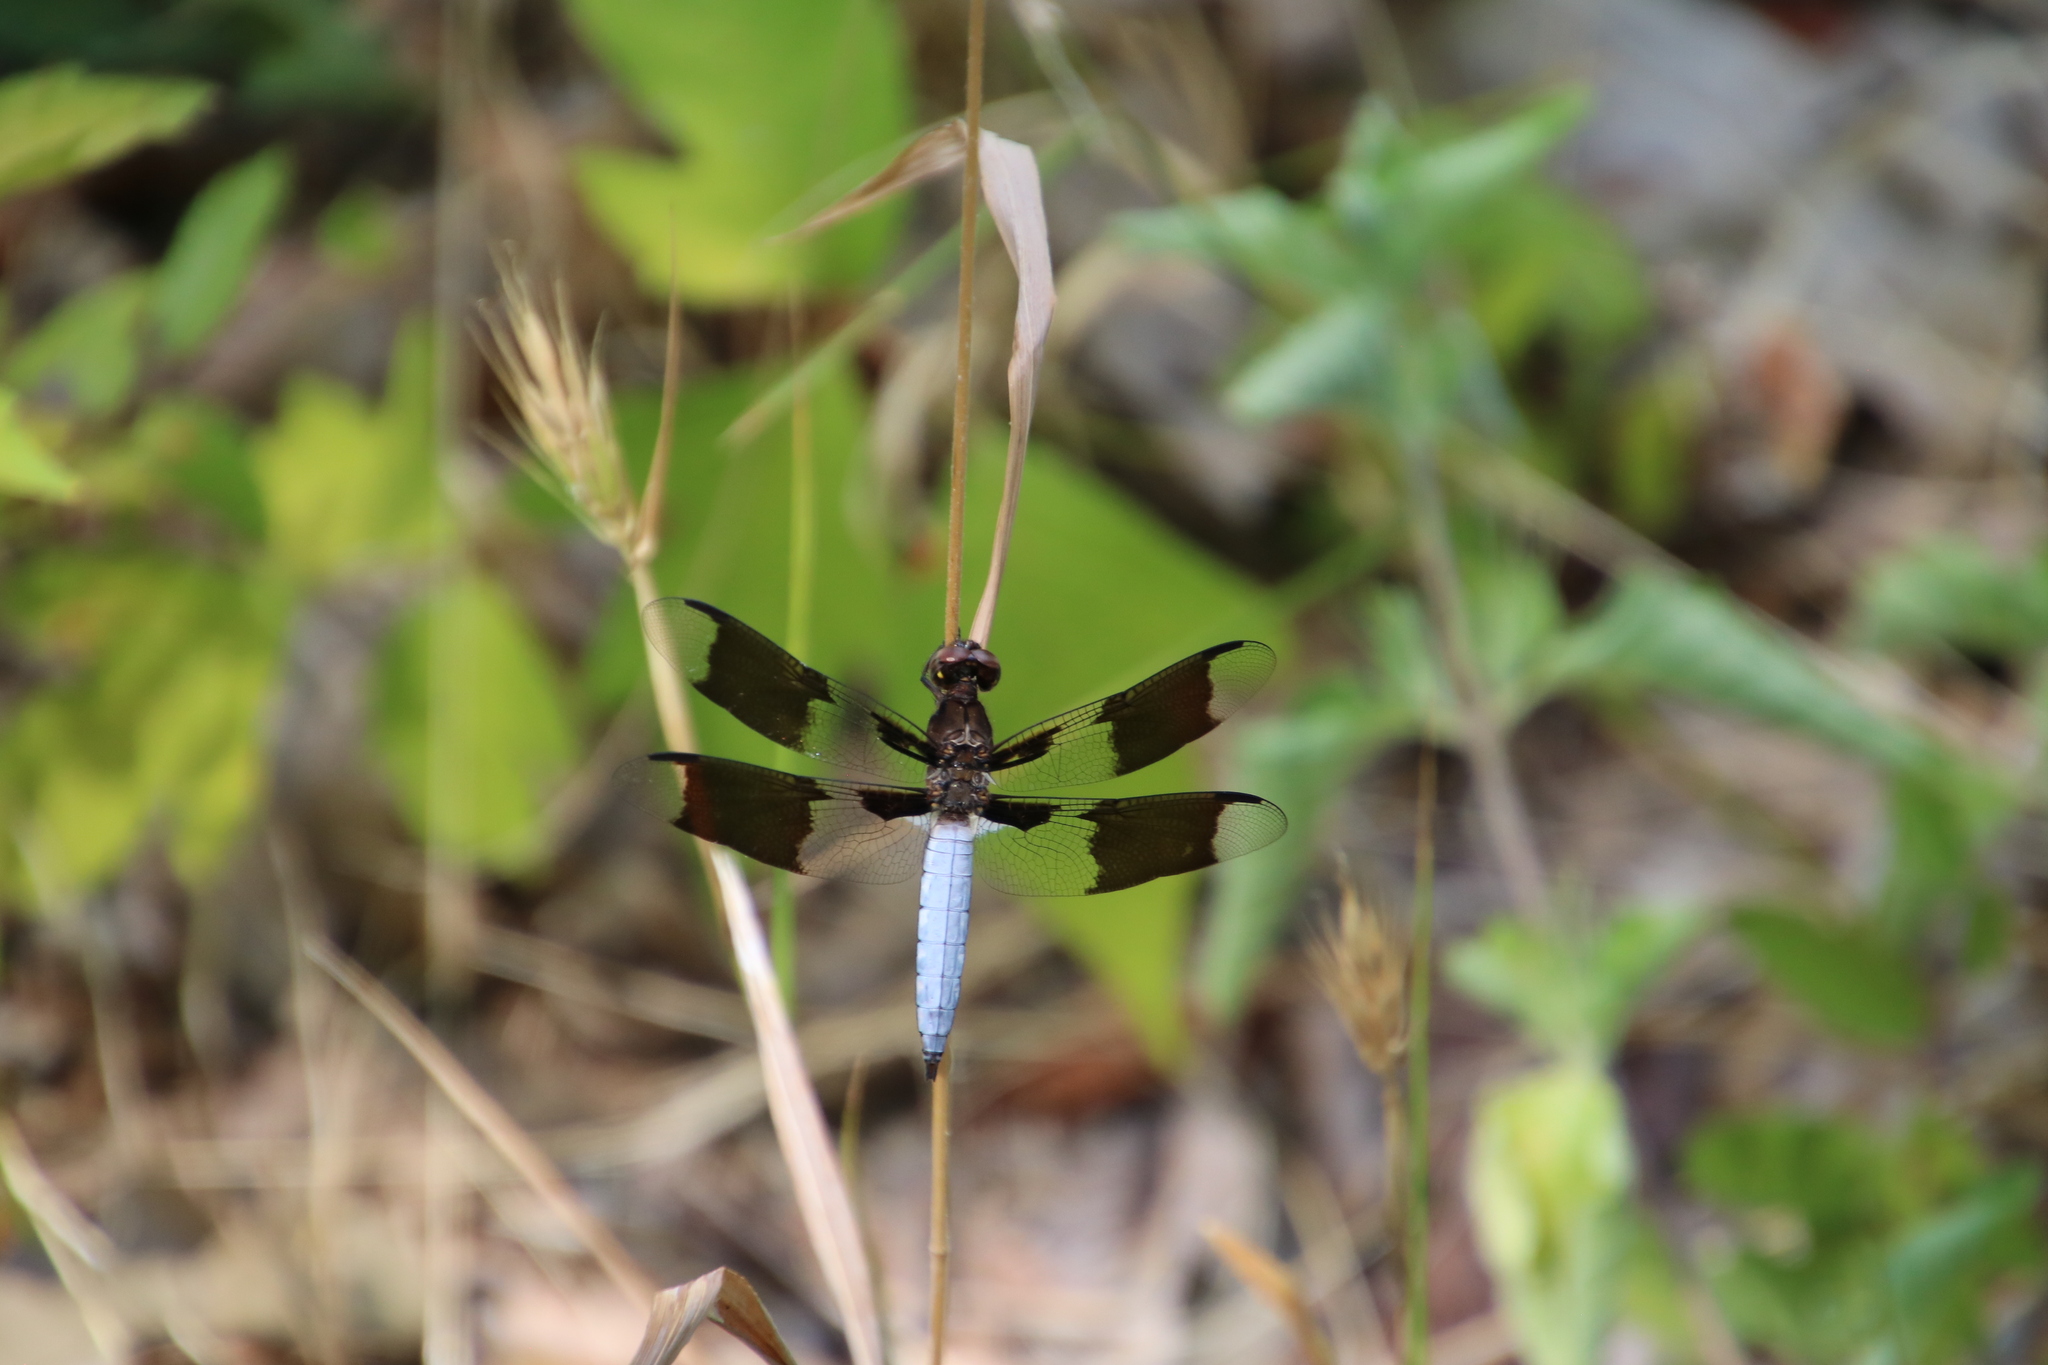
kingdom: Animalia
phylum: Arthropoda
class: Insecta
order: Odonata
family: Libellulidae
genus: Plathemis
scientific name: Plathemis lydia
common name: Common whitetail
